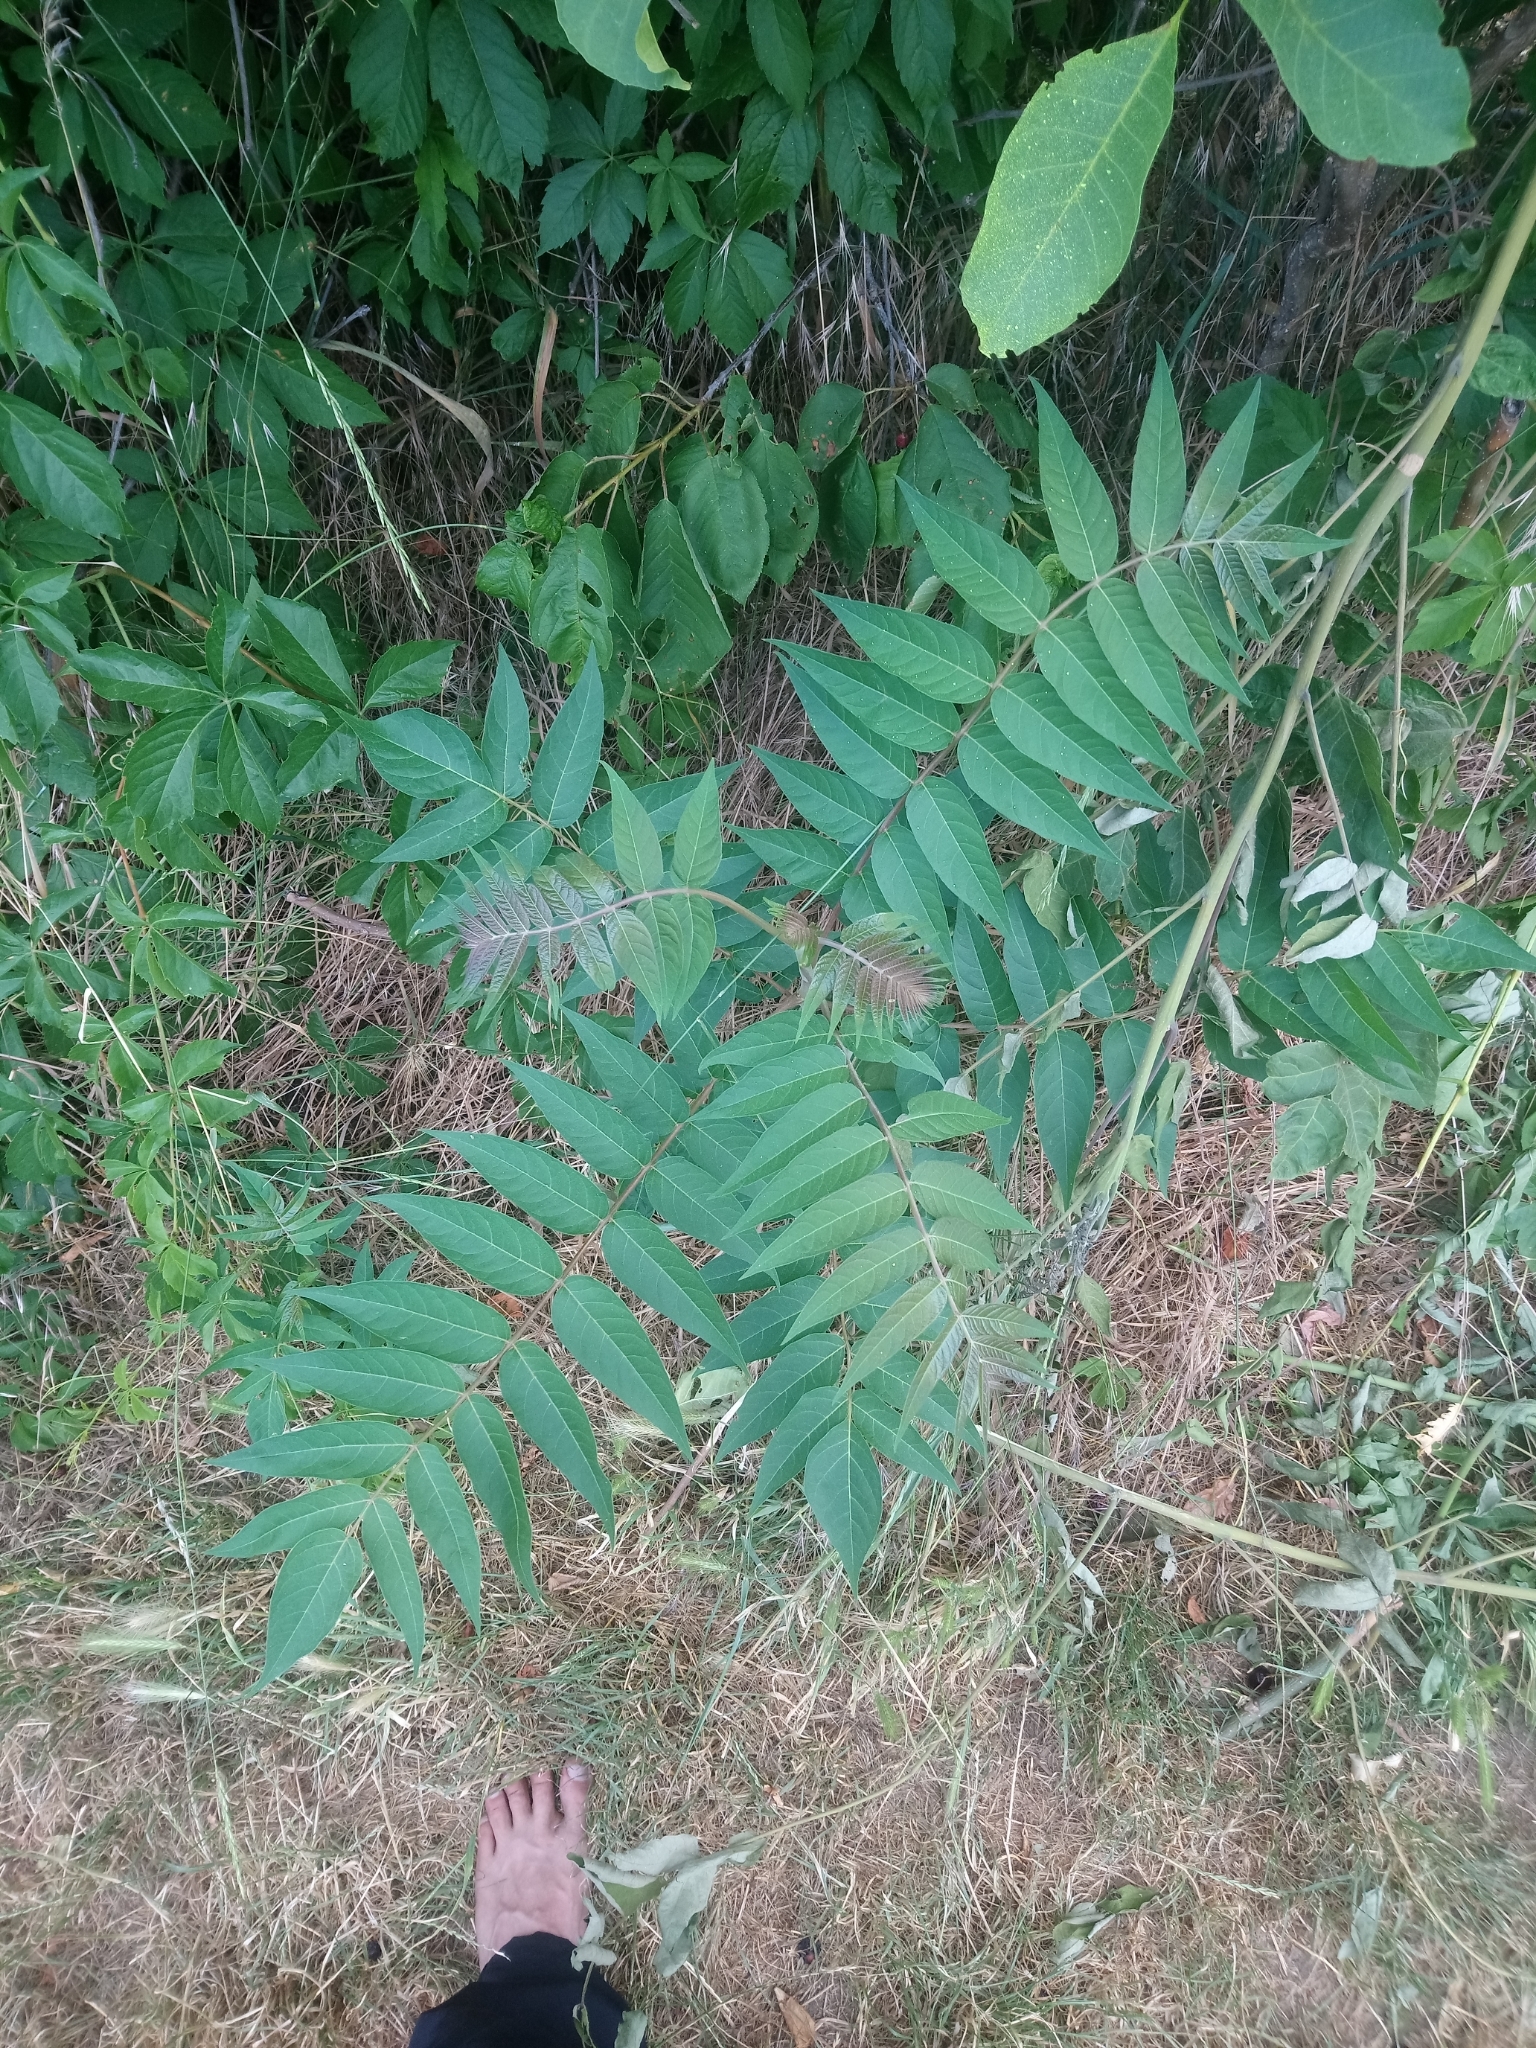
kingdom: Plantae
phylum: Tracheophyta
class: Magnoliopsida
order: Sapindales
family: Simaroubaceae
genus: Ailanthus
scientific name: Ailanthus altissima
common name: Tree-of-heaven
